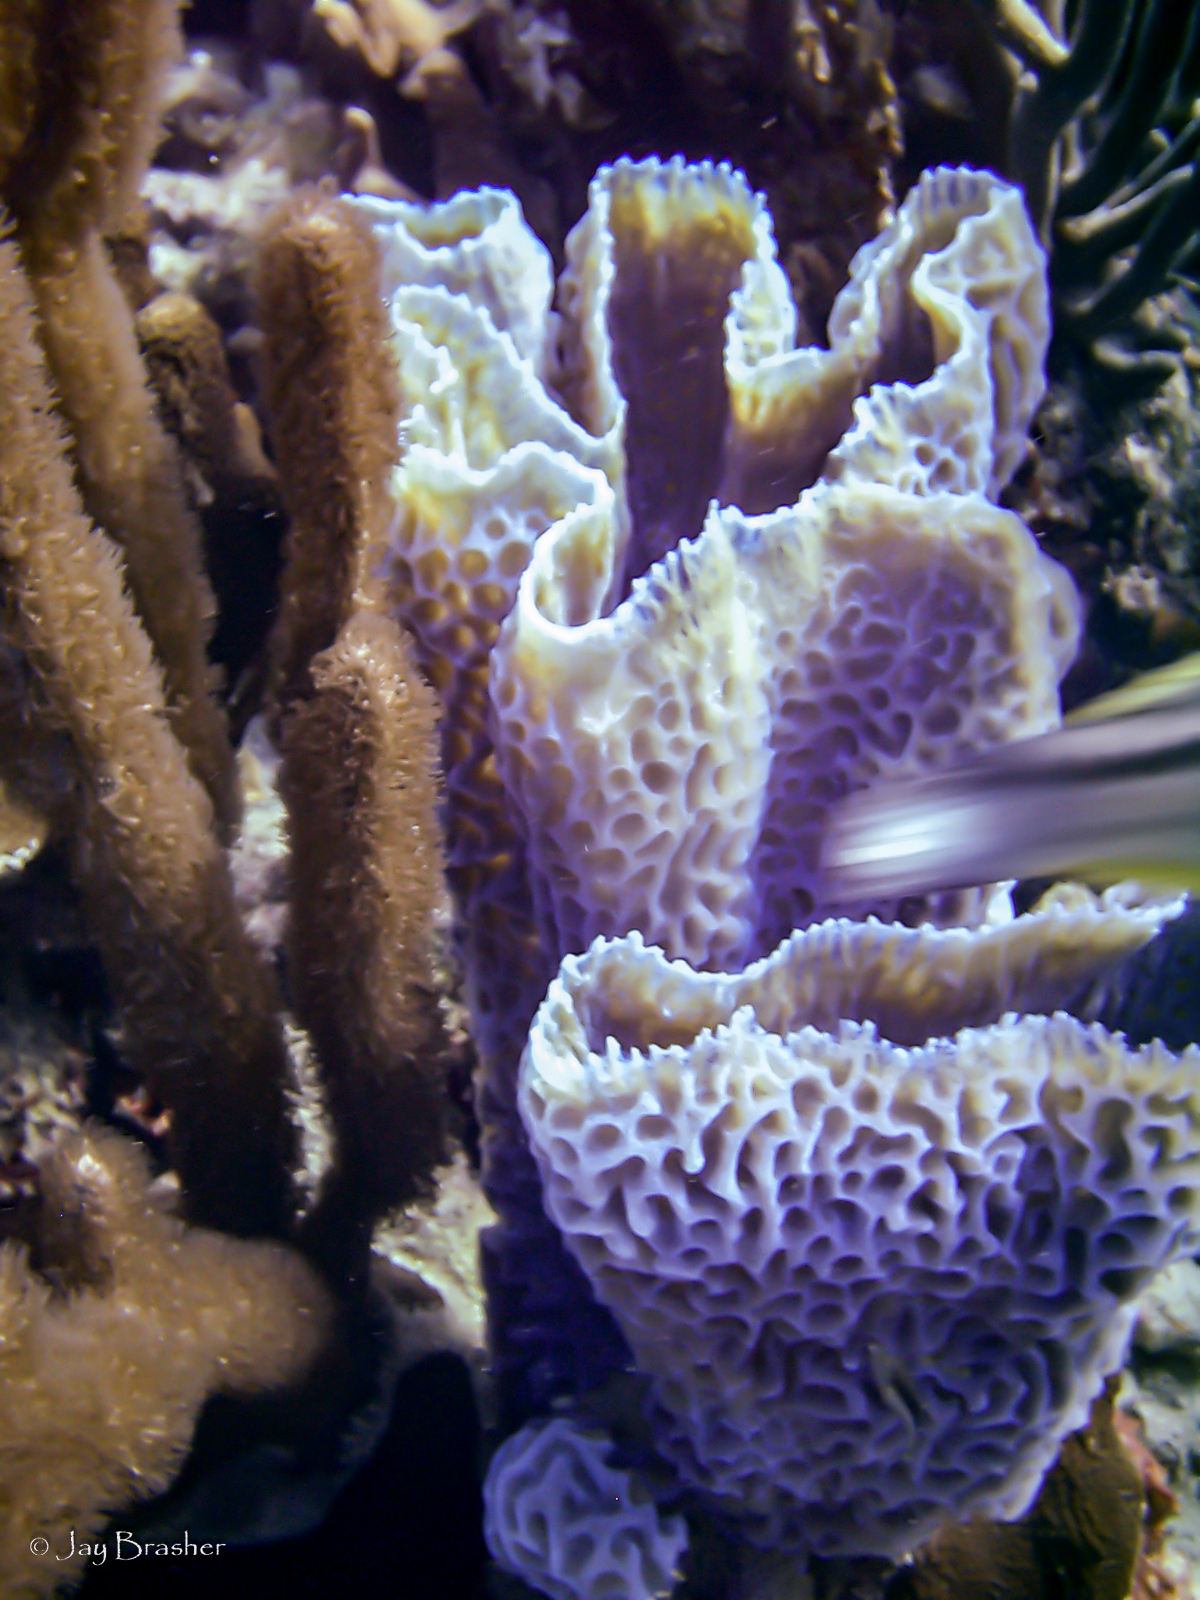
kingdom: Animalia
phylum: Porifera
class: Demospongiae
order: Haplosclerida
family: Callyspongiidae
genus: Callyspongia
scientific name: Callyspongia plicifera
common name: Azure vase sponge
